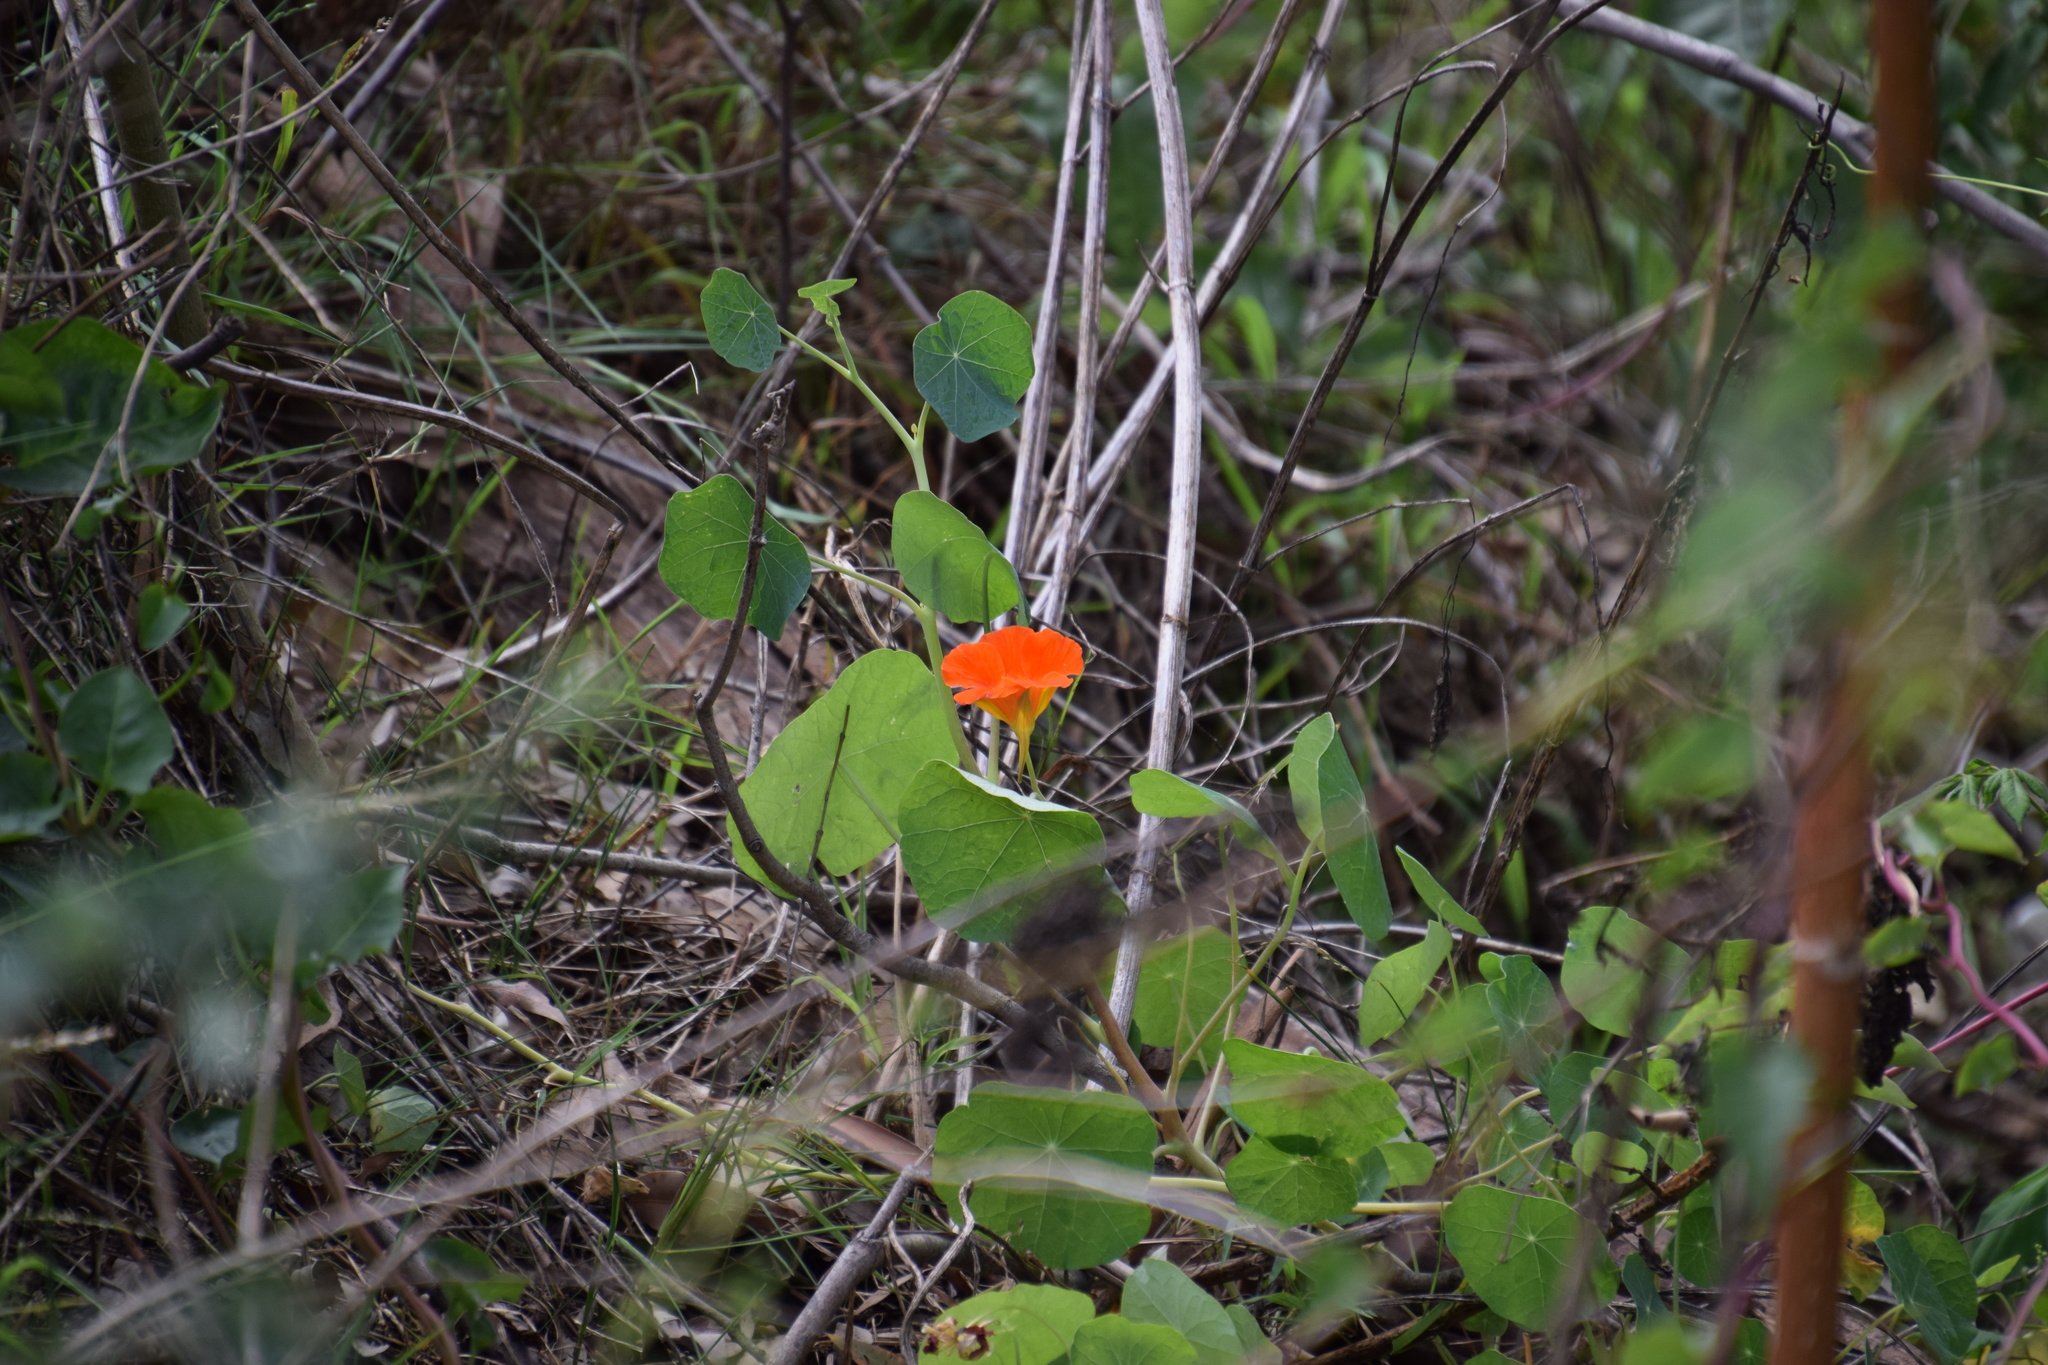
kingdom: Plantae
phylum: Tracheophyta
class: Magnoliopsida
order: Brassicales
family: Tropaeolaceae
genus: Tropaeolum
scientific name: Tropaeolum majus
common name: Nasturtium
